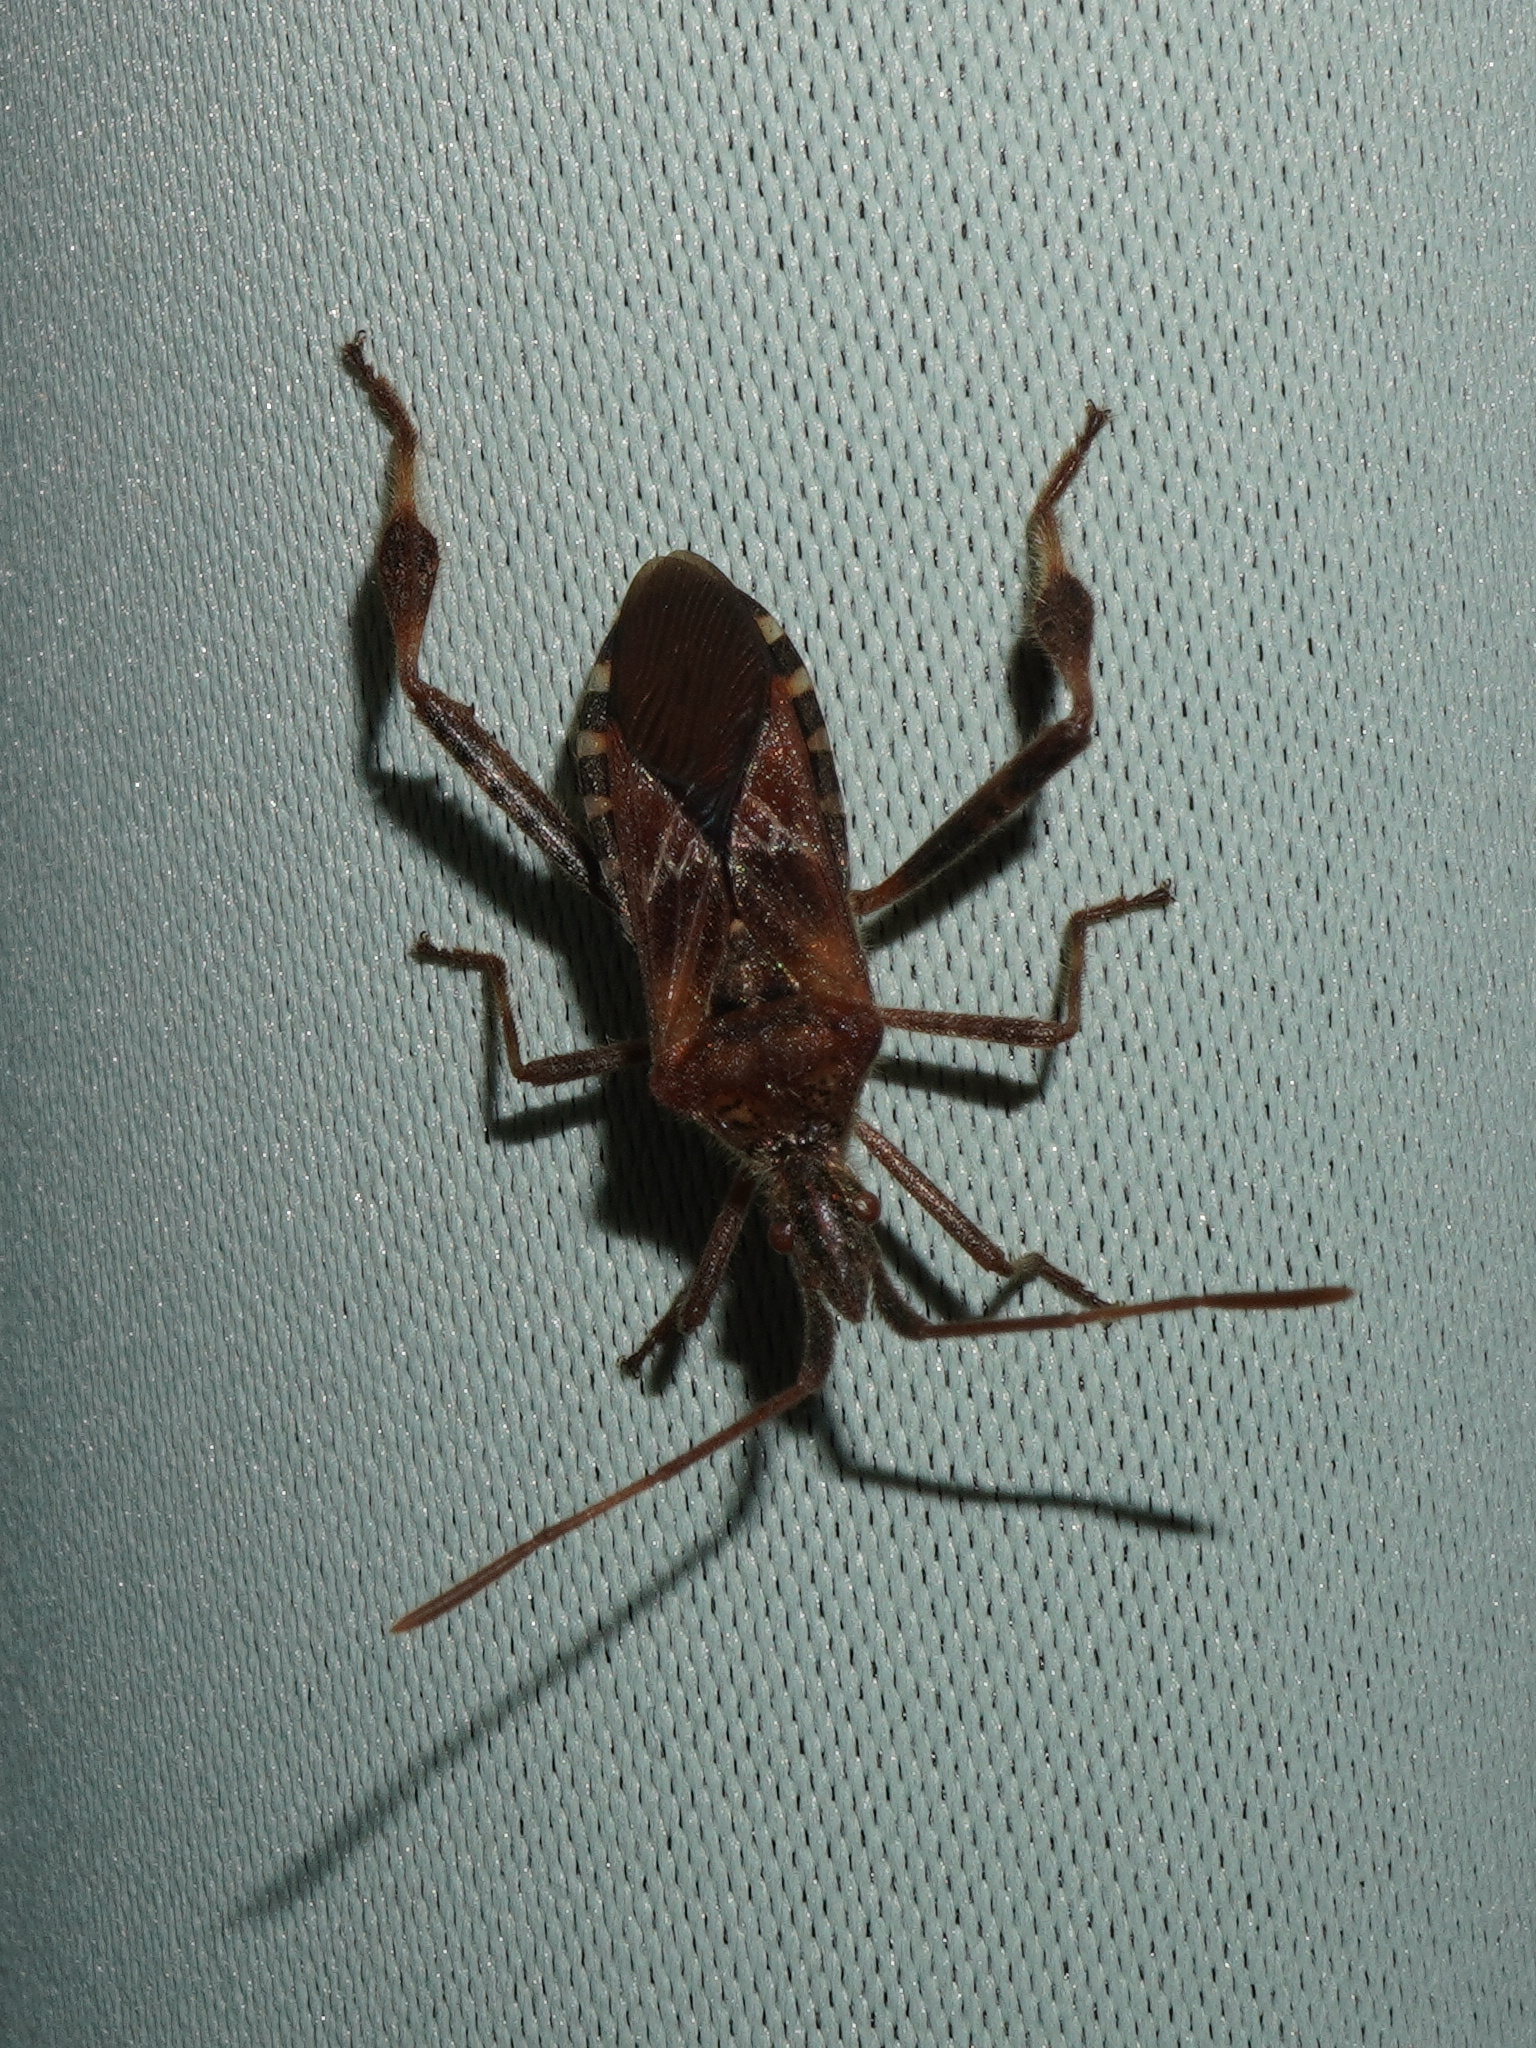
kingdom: Animalia
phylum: Arthropoda
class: Insecta
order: Hemiptera
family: Coreidae
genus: Leptoglossus
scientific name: Leptoglossus occidentalis
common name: Western conifer-seed bug
